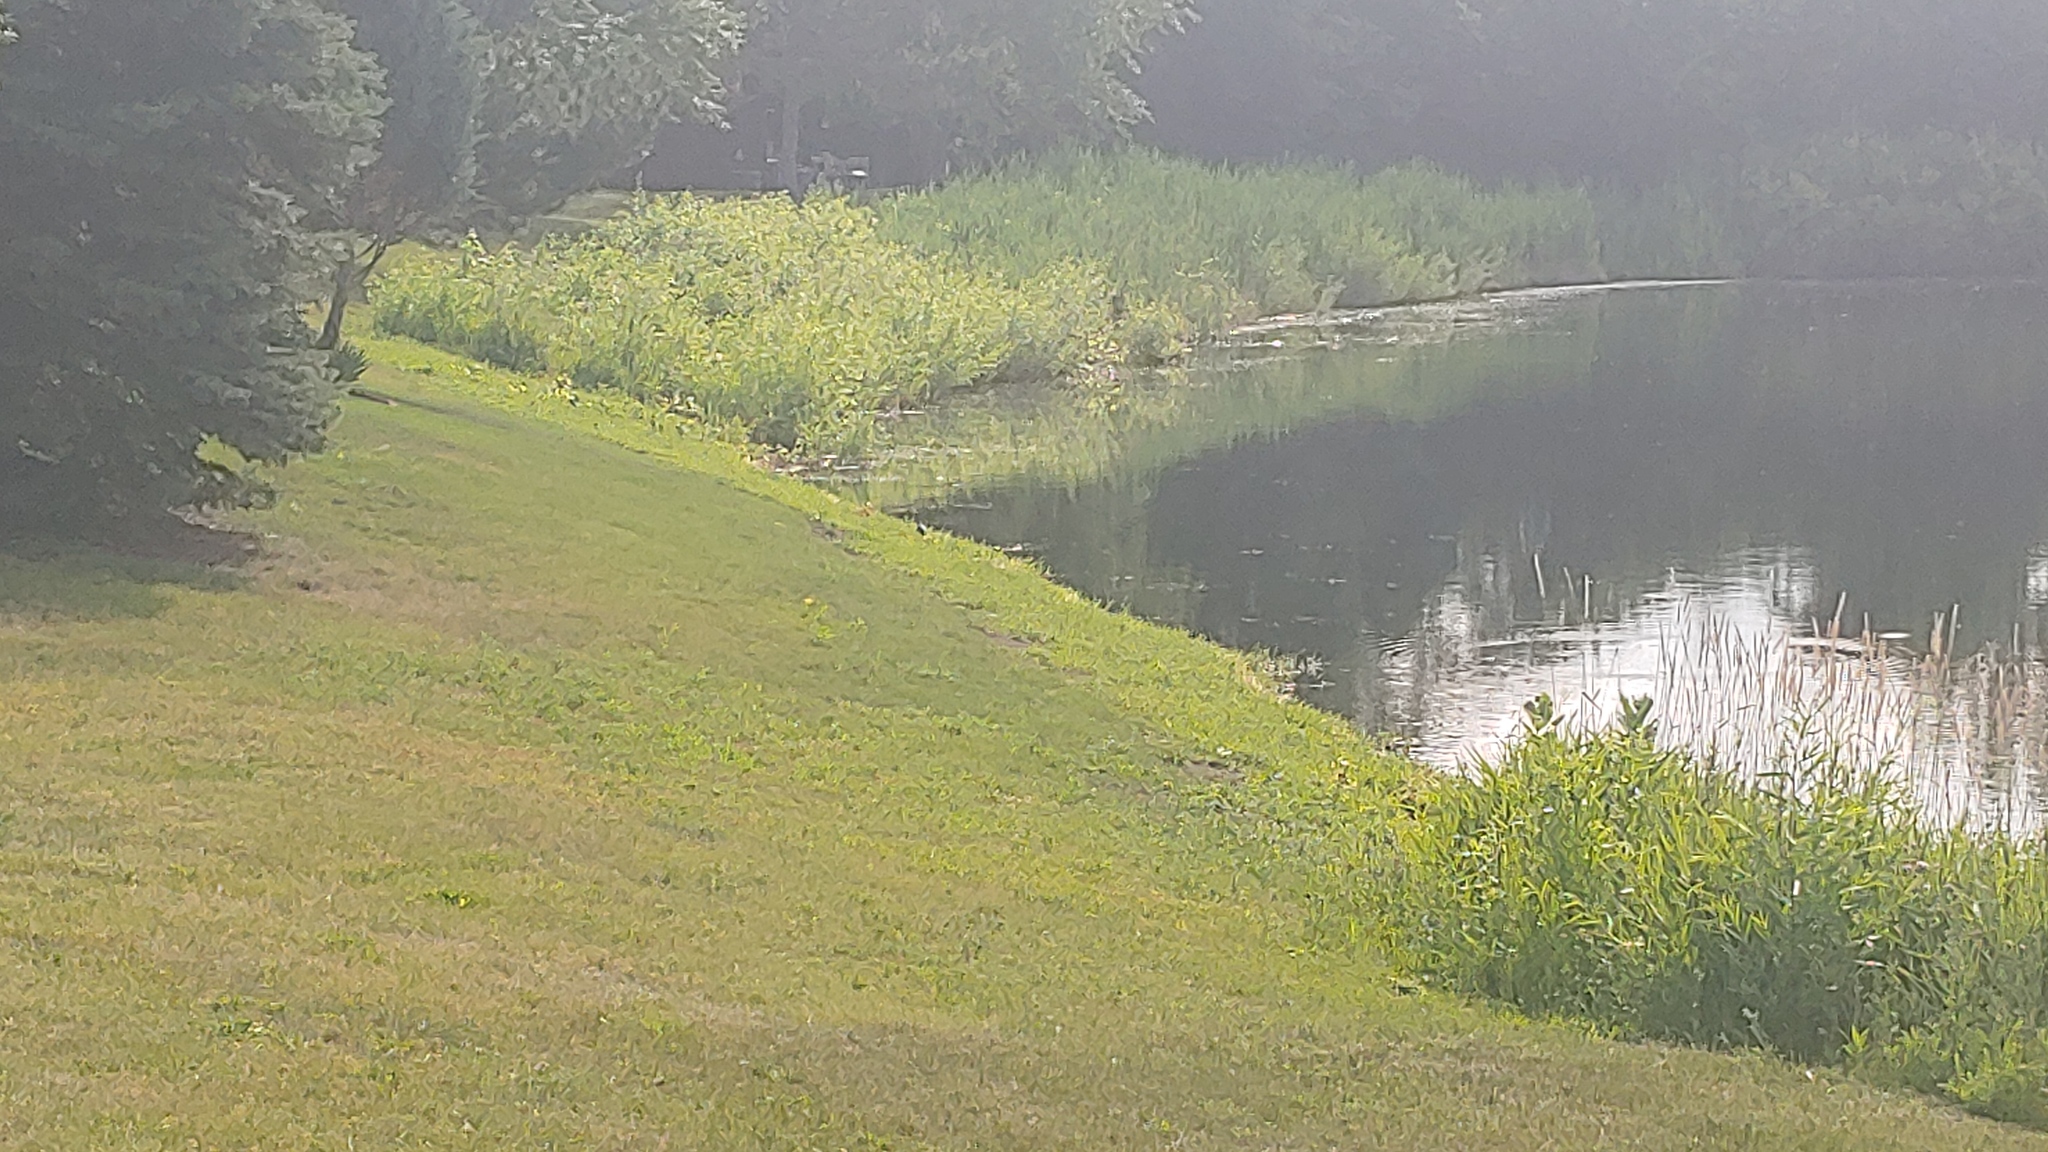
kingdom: Animalia
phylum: Chordata
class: Aves
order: Pelecaniformes
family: Ardeidae
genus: Butorides
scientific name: Butorides virescens
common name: Green heron
